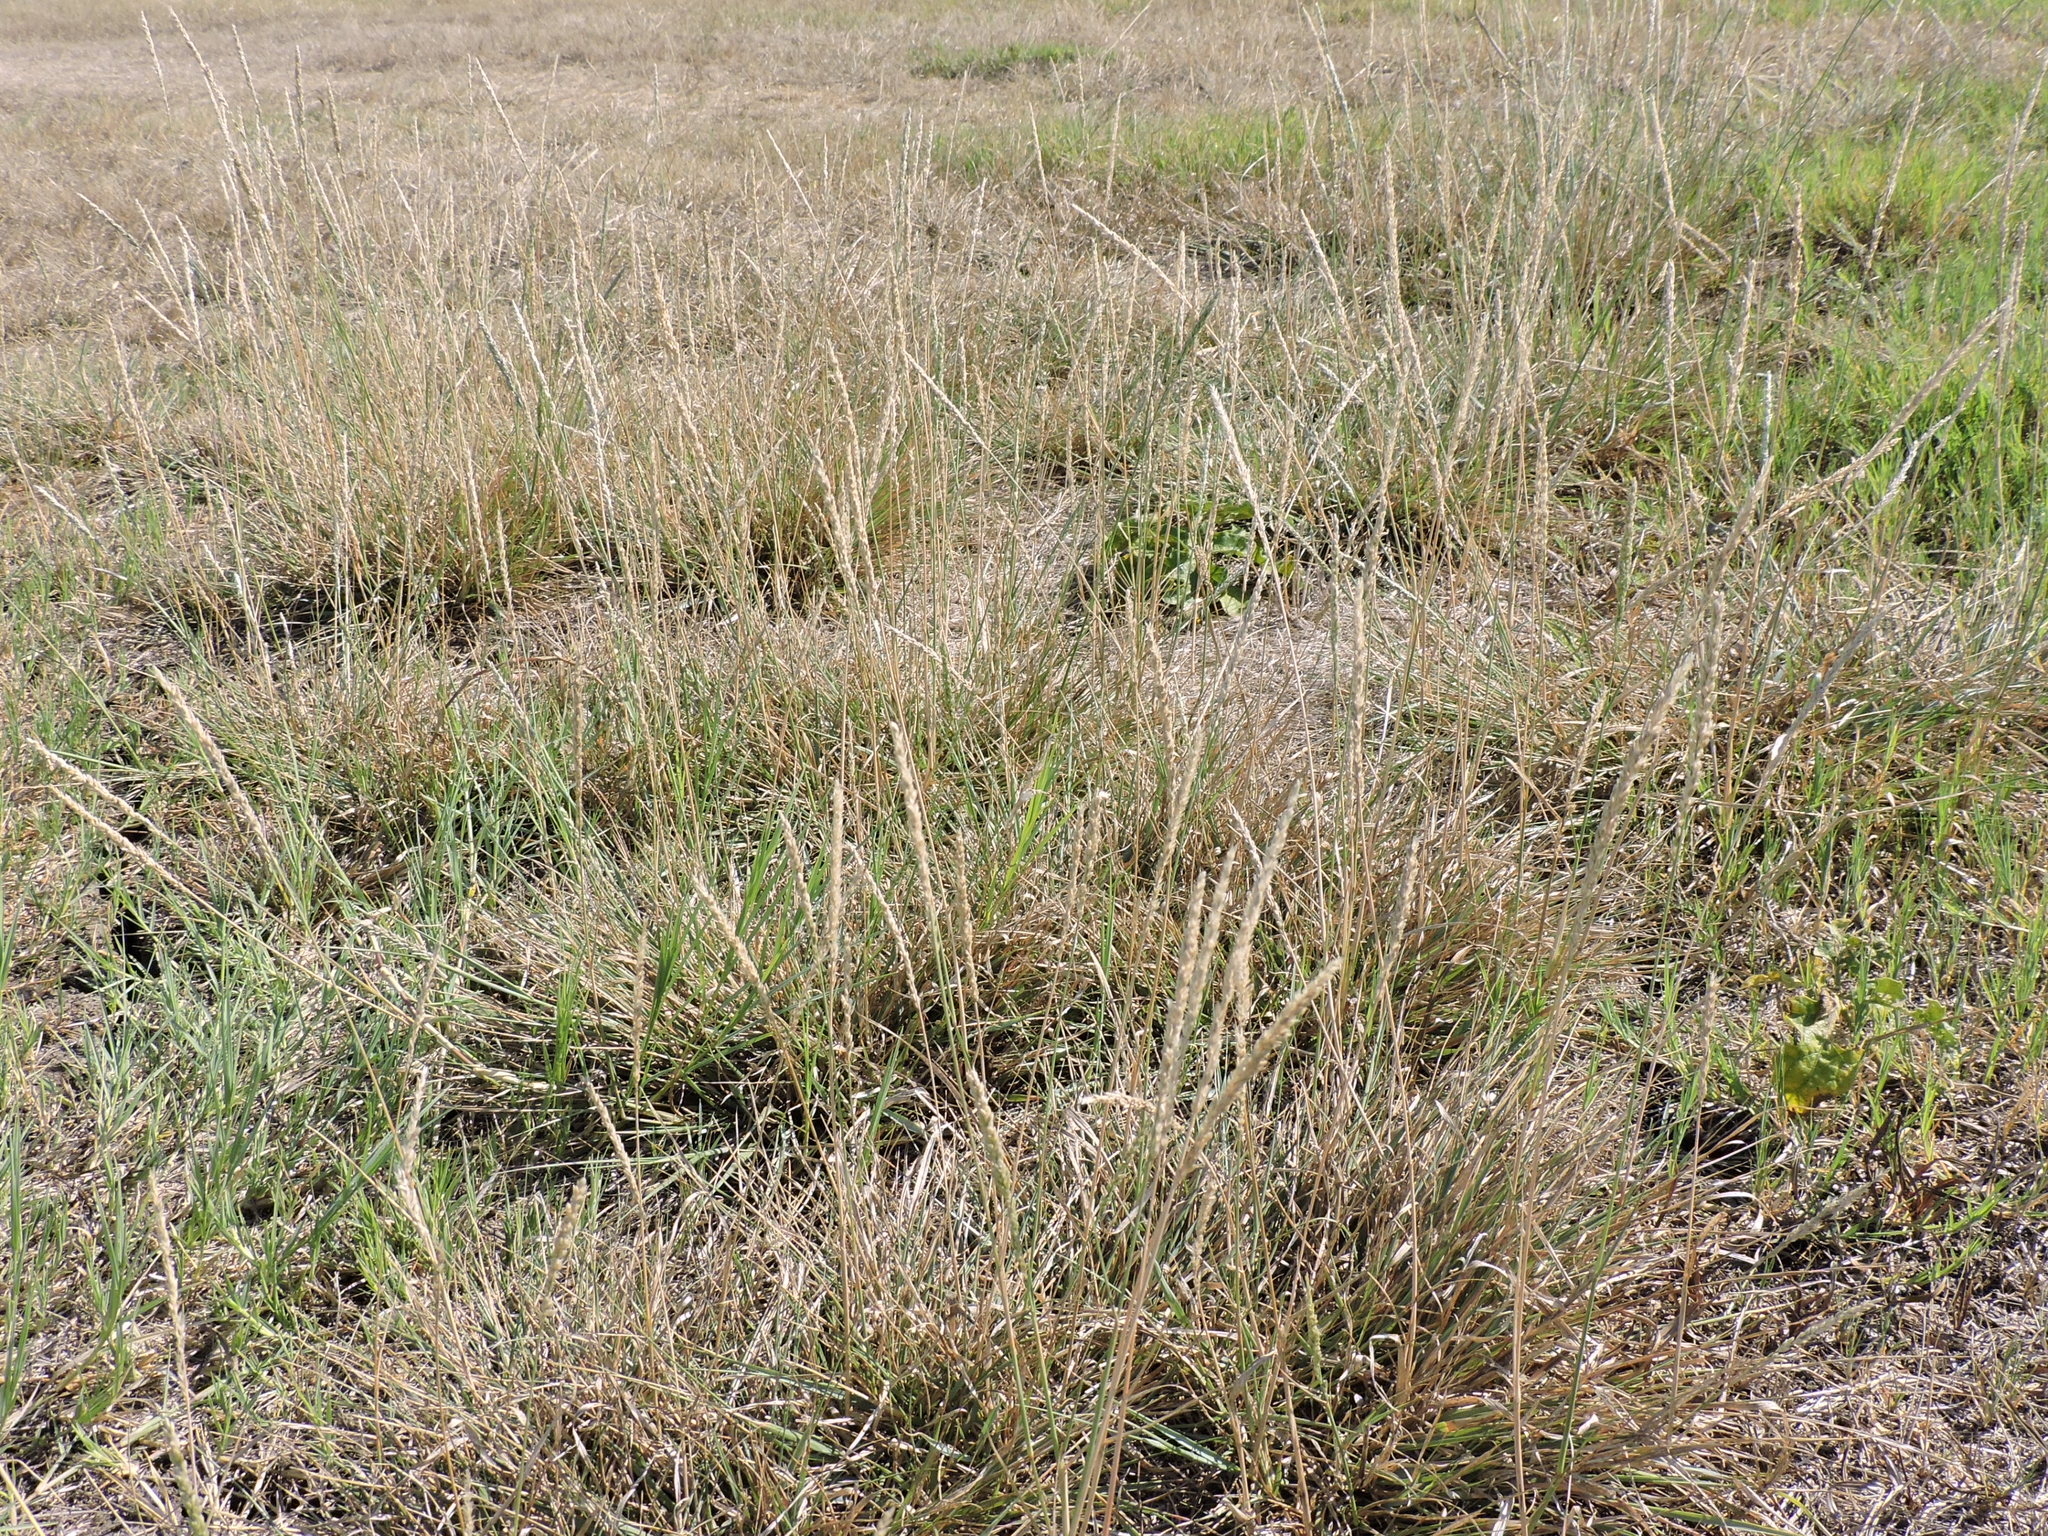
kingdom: Plantae
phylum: Tracheophyta
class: Liliopsida
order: Poales
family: Poaceae
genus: Tridens
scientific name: Tridens albescens
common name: White tridens
